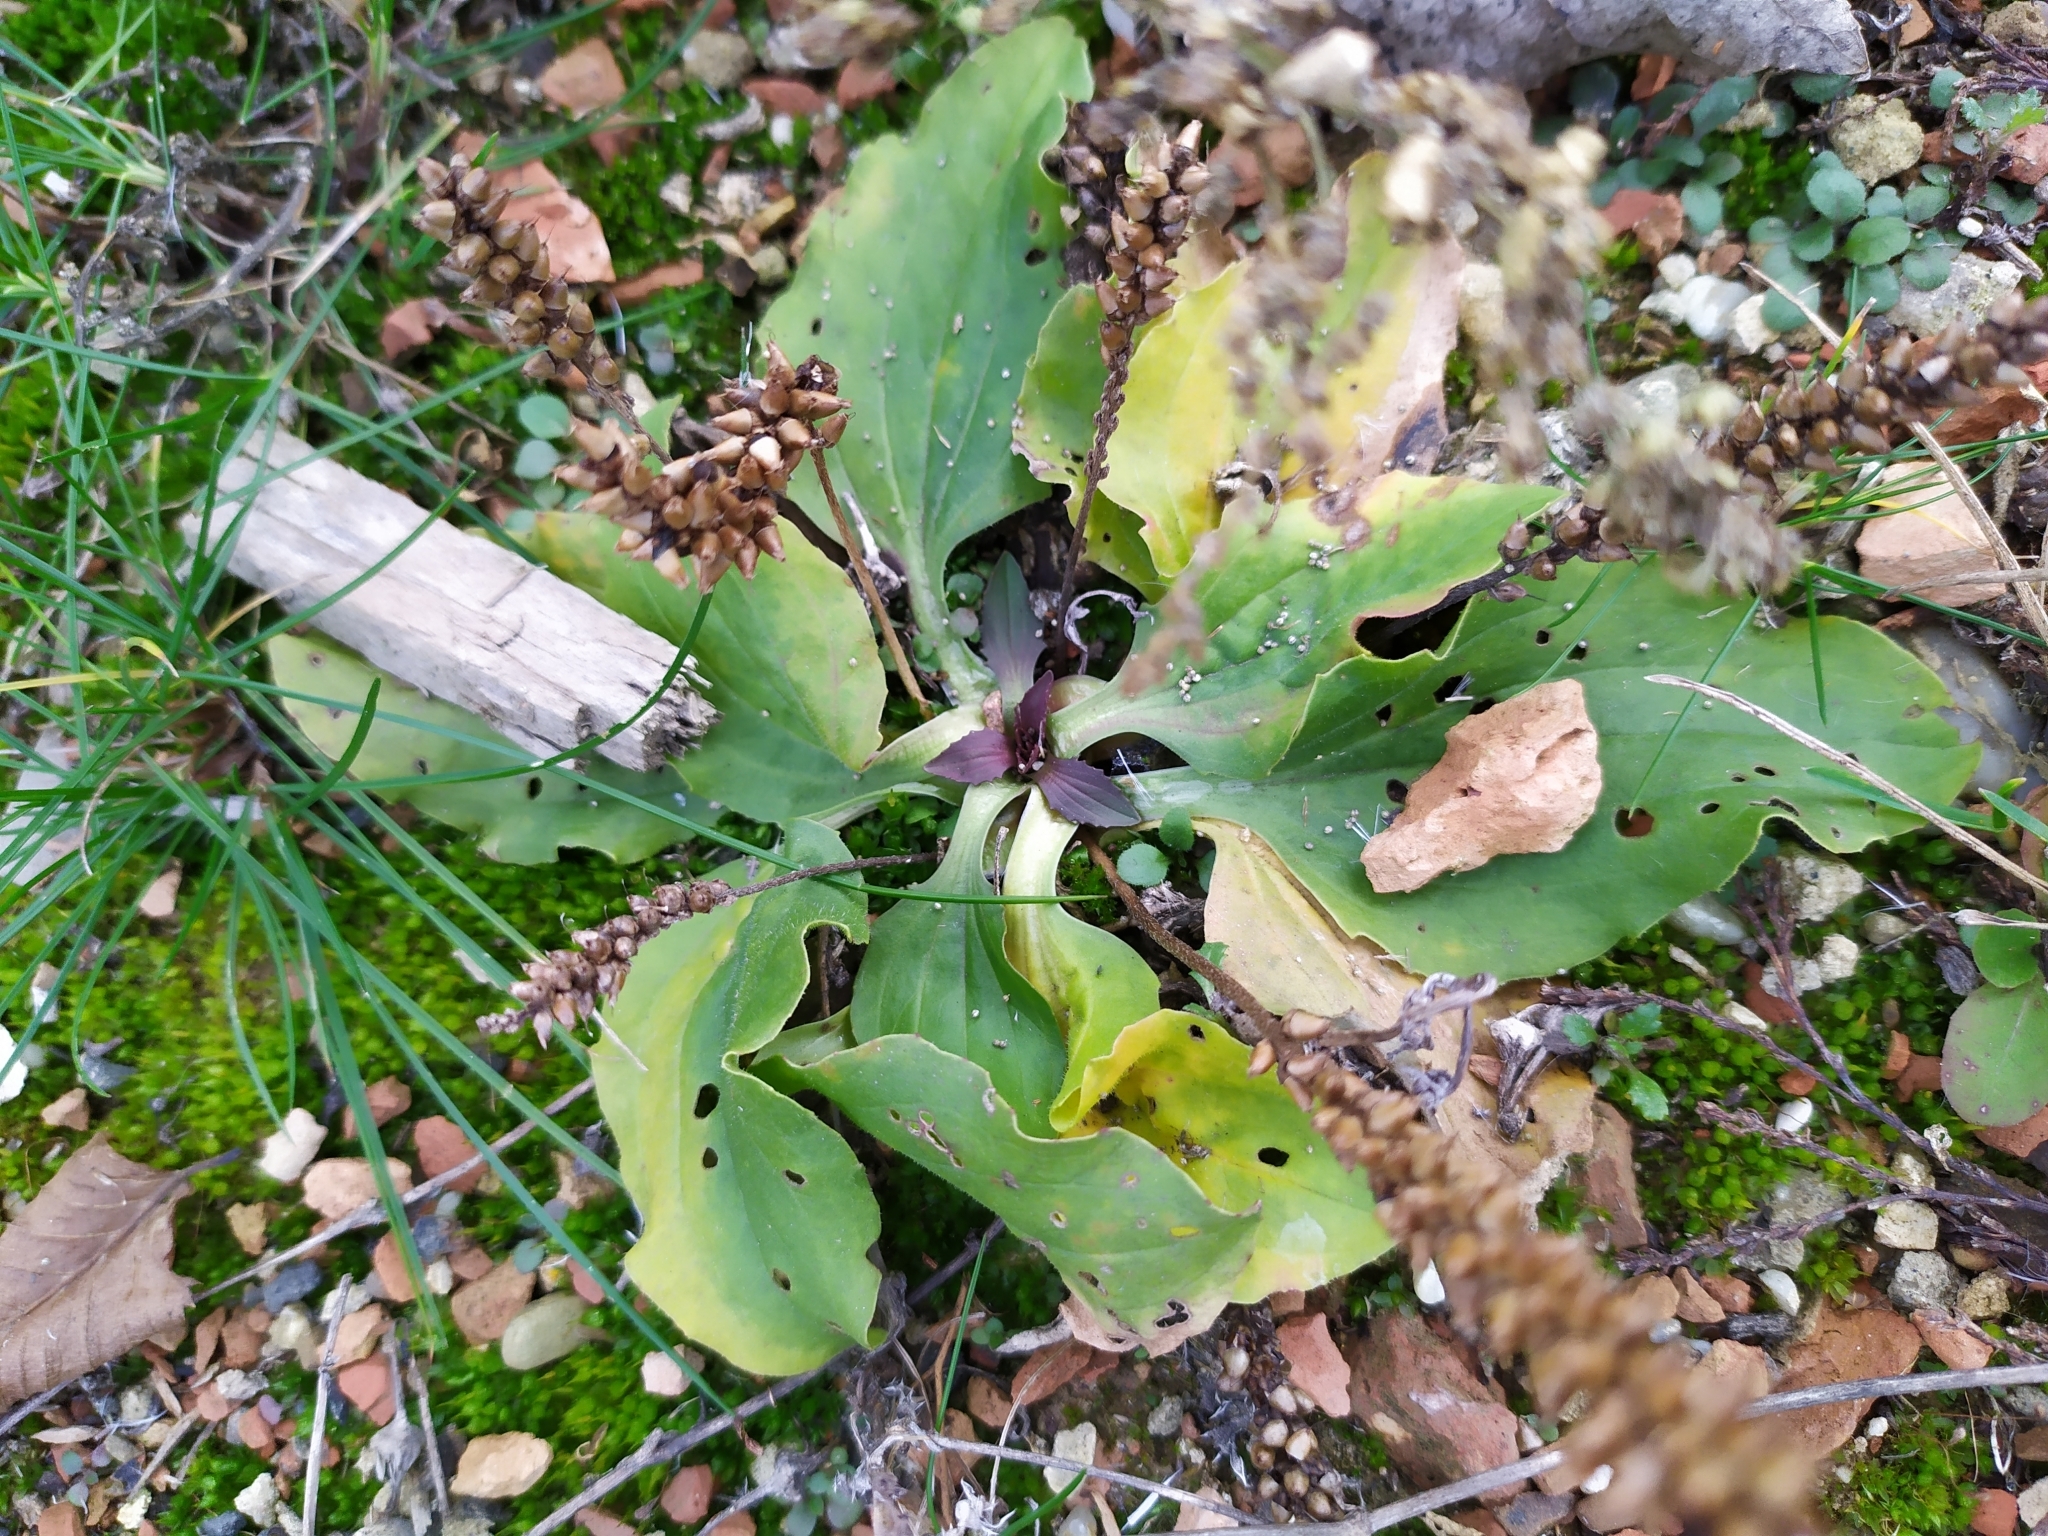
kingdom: Plantae
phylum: Tracheophyta
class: Magnoliopsida
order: Lamiales
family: Plantaginaceae
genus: Plantago
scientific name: Plantago major
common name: Common plantain
